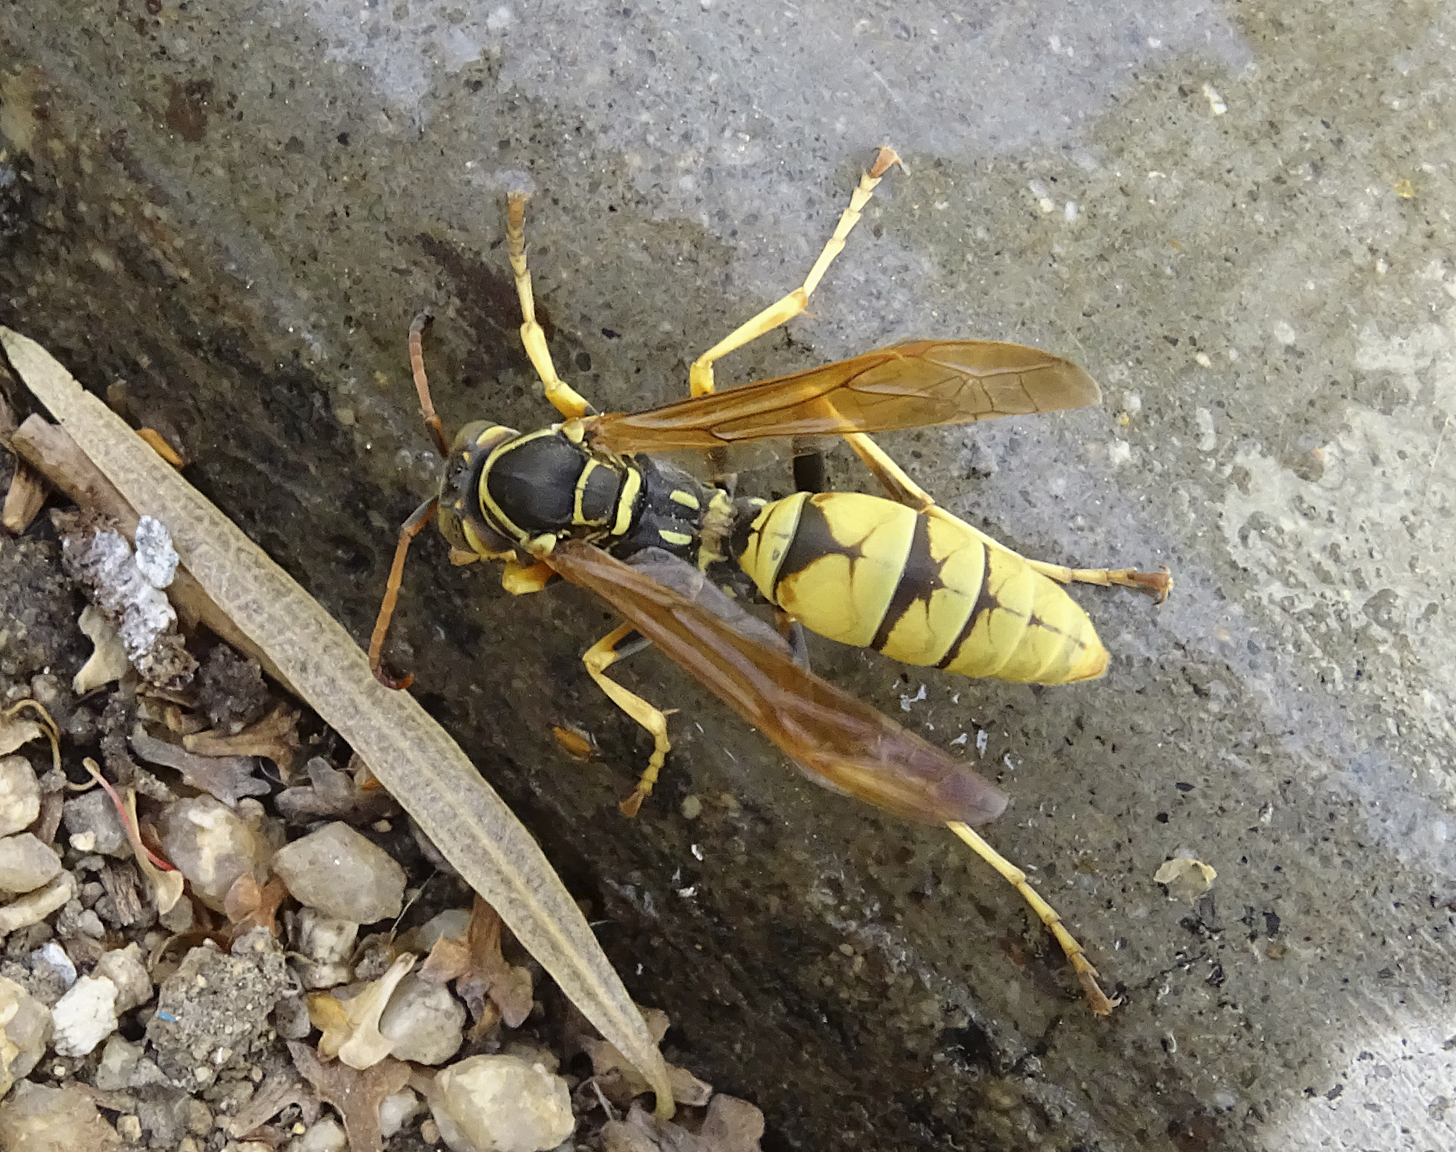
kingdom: Animalia
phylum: Arthropoda
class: Insecta
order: Hymenoptera
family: Eumenidae
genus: Polistes
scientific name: Polistes aurifer
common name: Paper wasp
